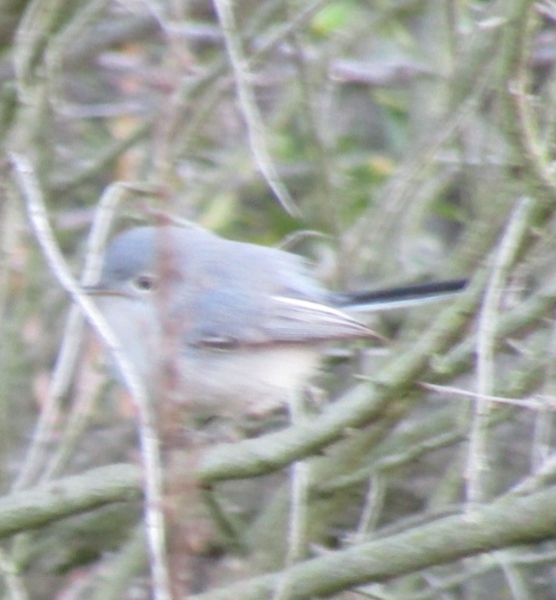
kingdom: Animalia
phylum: Chordata
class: Aves
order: Passeriformes
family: Polioptilidae
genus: Polioptila
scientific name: Polioptila caerulea
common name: Blue-gray gnatcatcher
